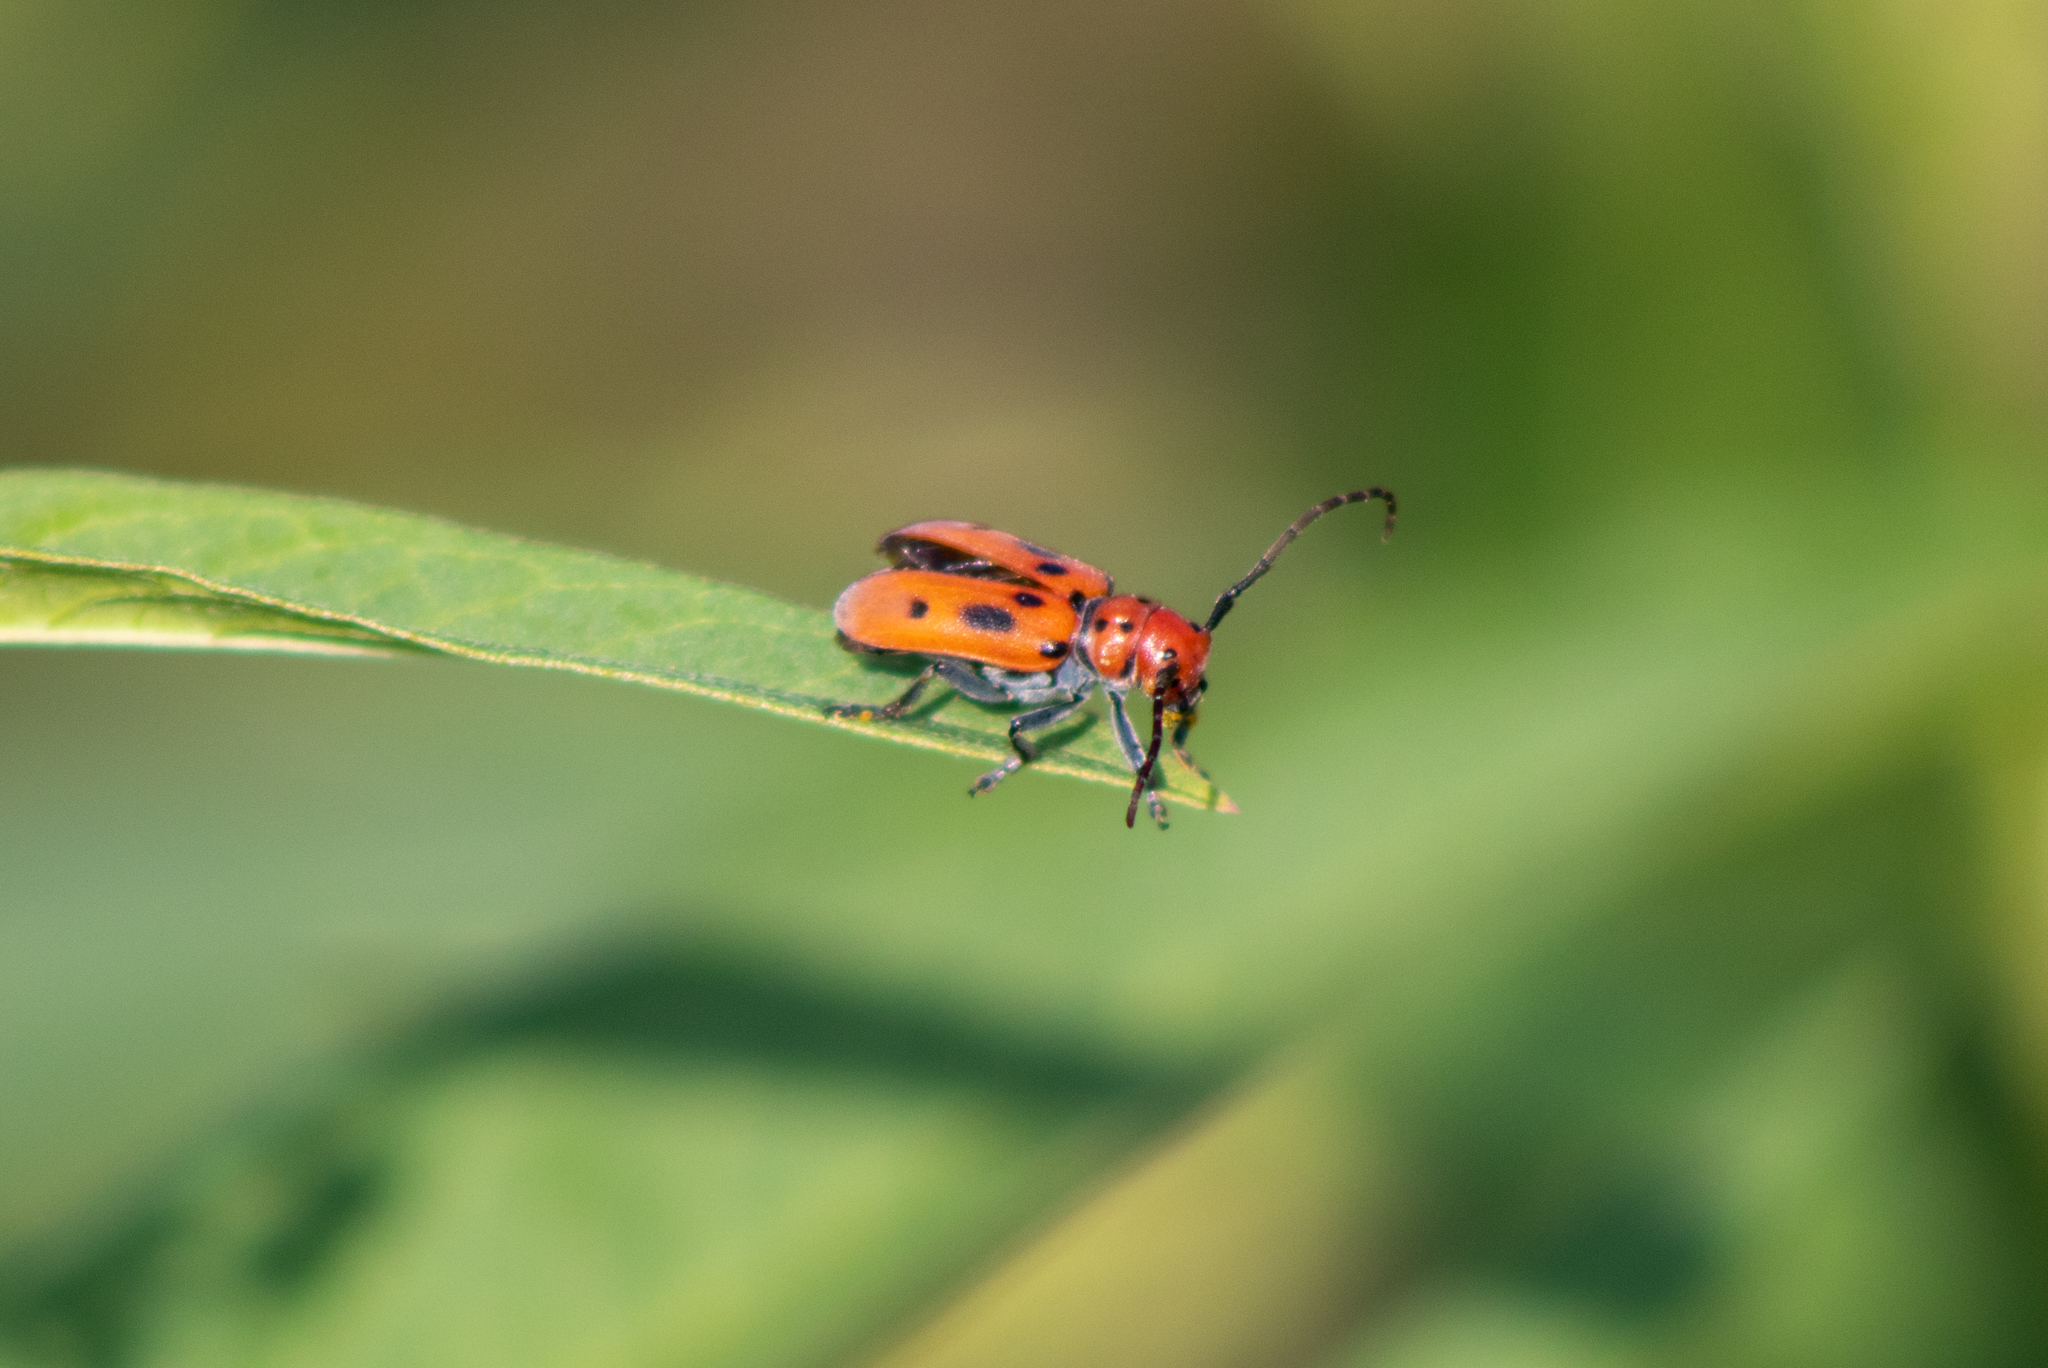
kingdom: Animalia
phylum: Arthropoda
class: Insecta
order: Coleoptera
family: Cerambycidae
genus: Tetraopes
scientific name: Tetraopes tetrophthalmus
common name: Red milkweed beetle
